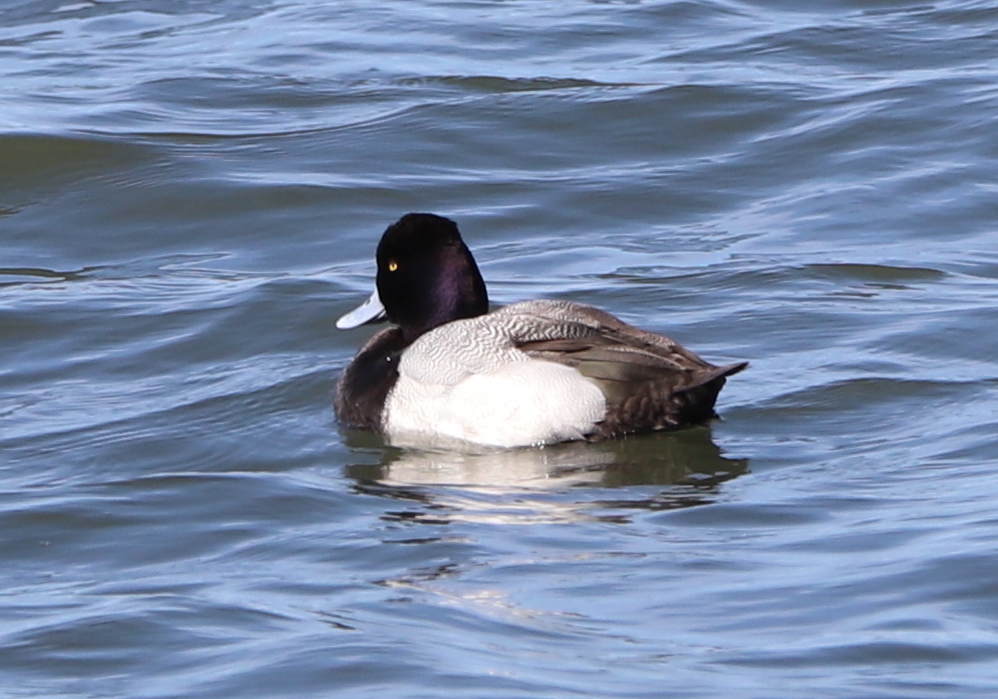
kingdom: Animalia
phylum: Chordata
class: Aves
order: Anseriformes
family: Anatidae
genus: Aythya
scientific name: Aythya affinis
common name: Lesser scaup
